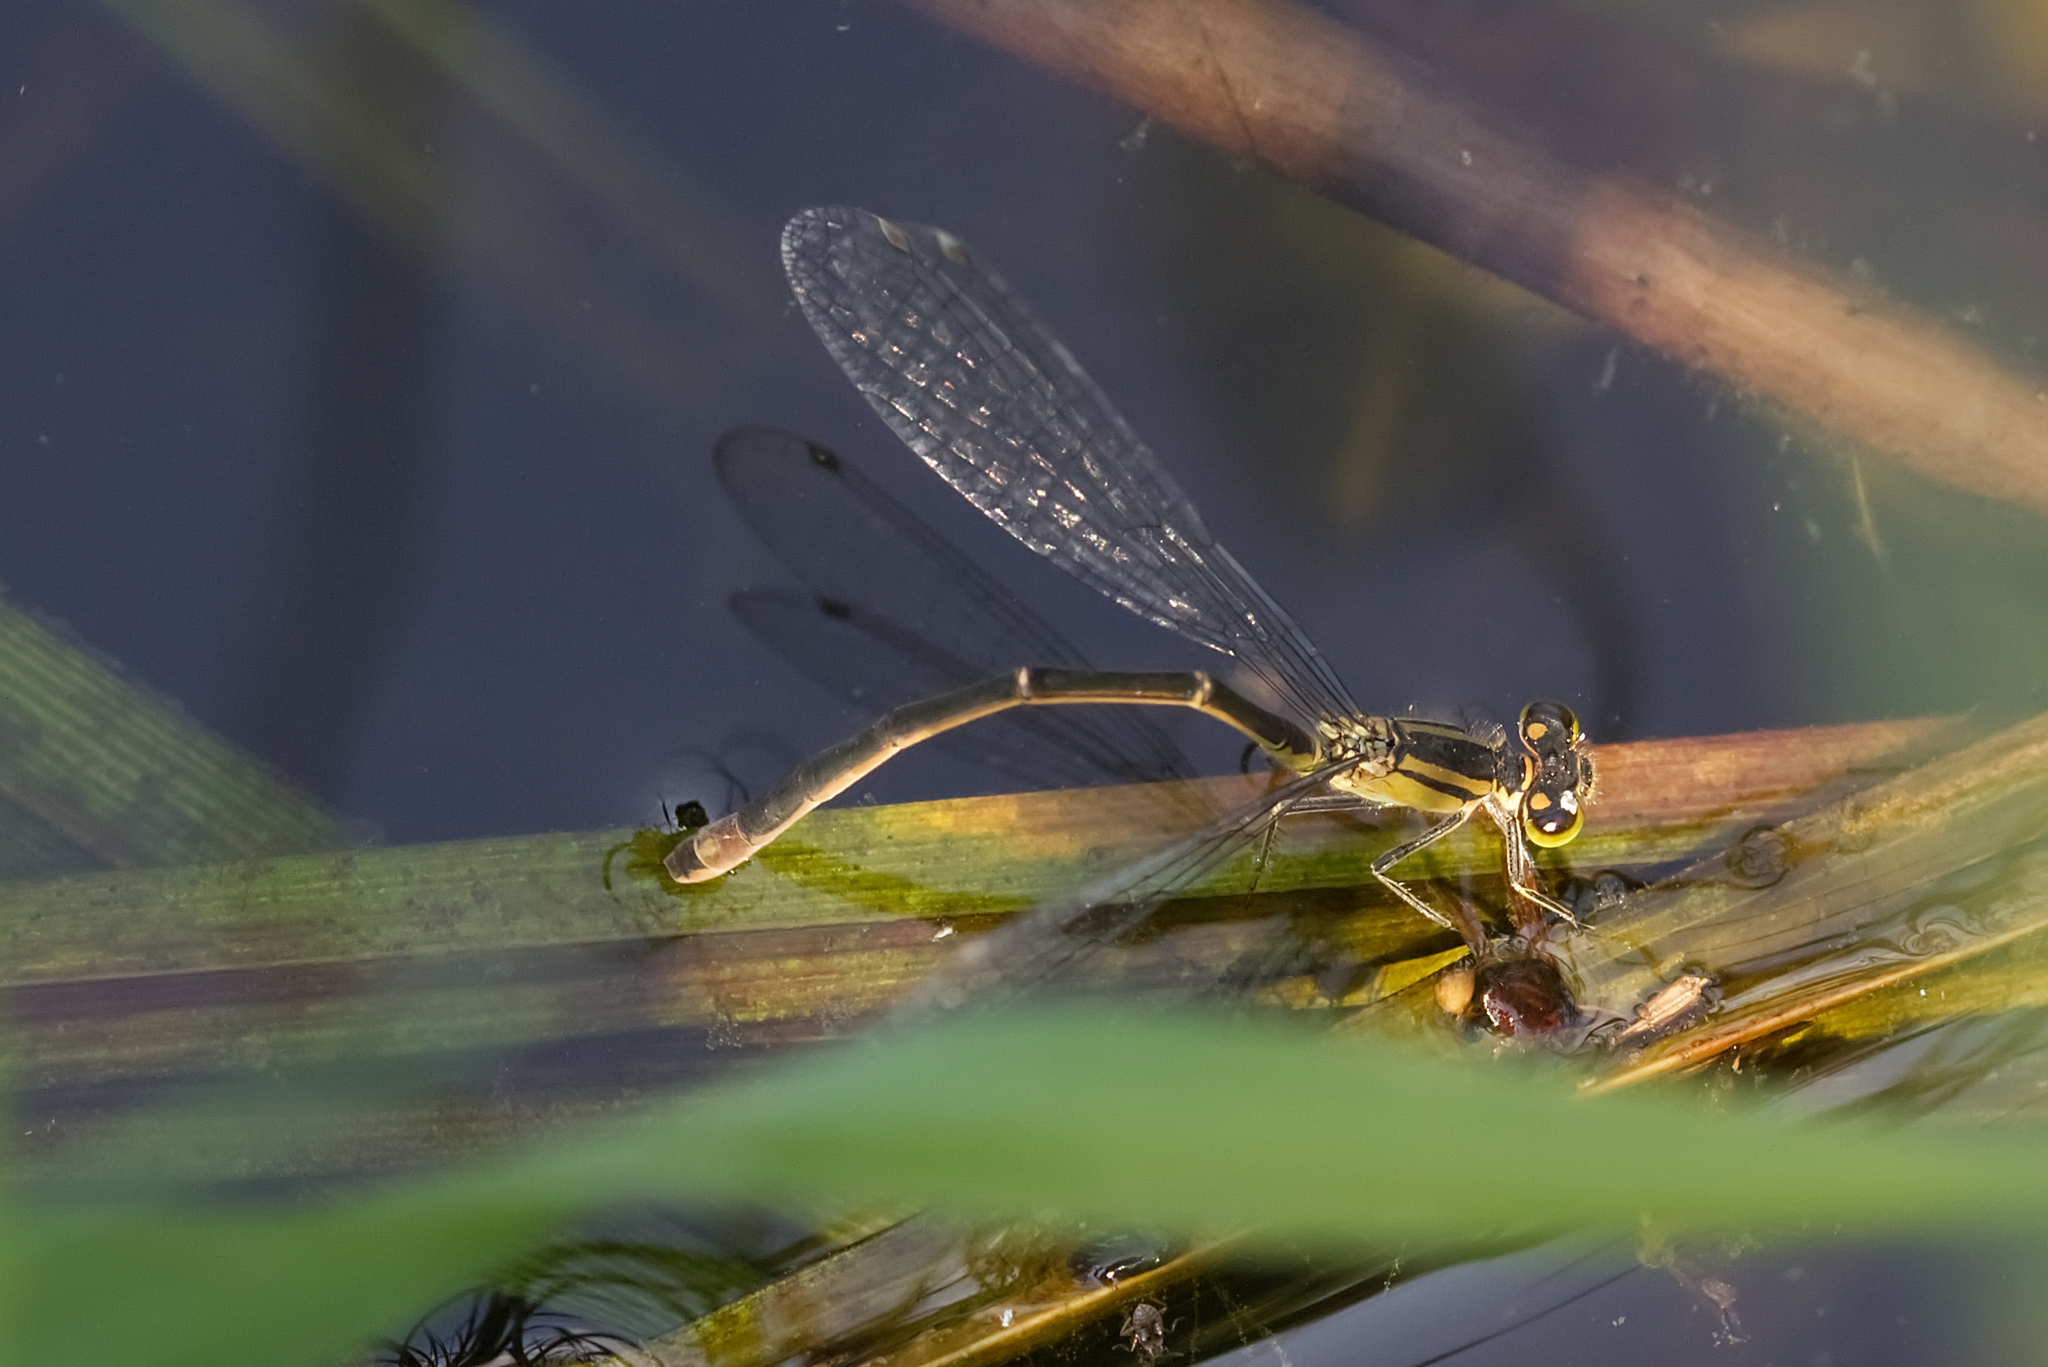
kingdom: Animalia
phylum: Arthropoda
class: Insecta
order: Odonata
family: Coenagrionidae
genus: Ischnura
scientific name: Ischnura elegans
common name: Blue-tailed damselfly
